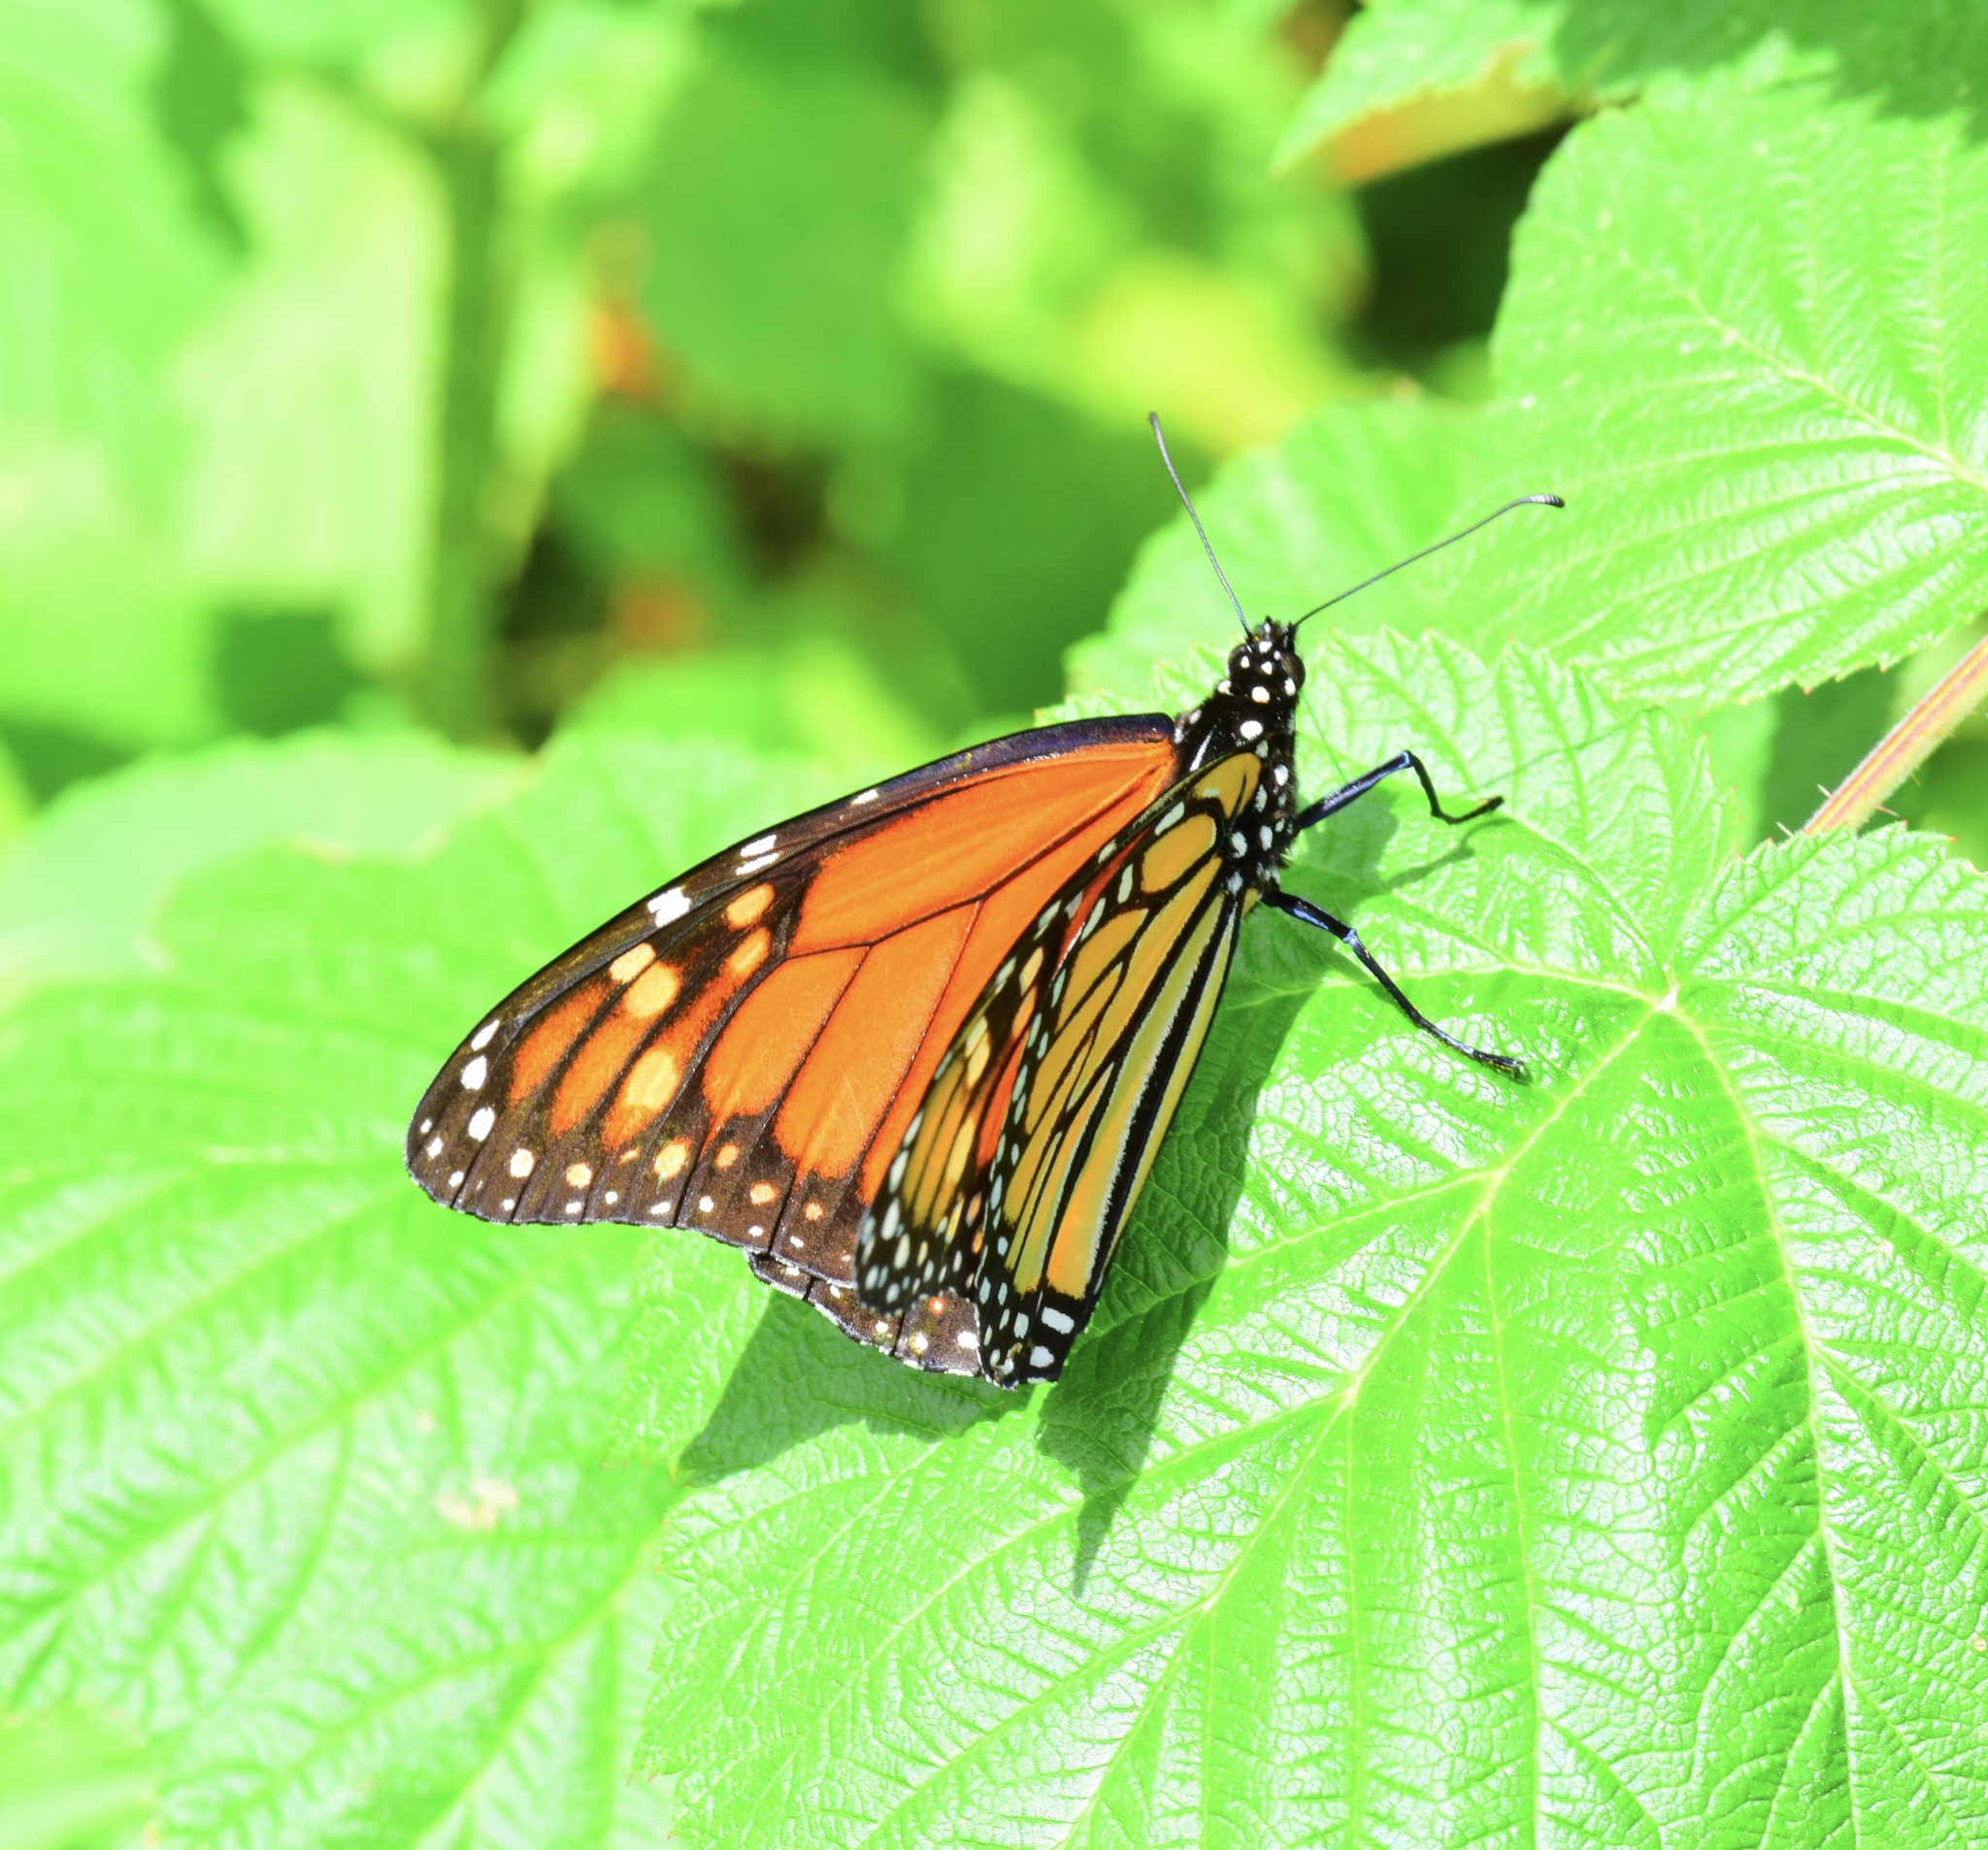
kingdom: Animalia
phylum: Arthropoda
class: Insecta
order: Lepidoptera
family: Nymphalidae
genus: Danaus
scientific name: Danaus plexippus
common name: Monarch
